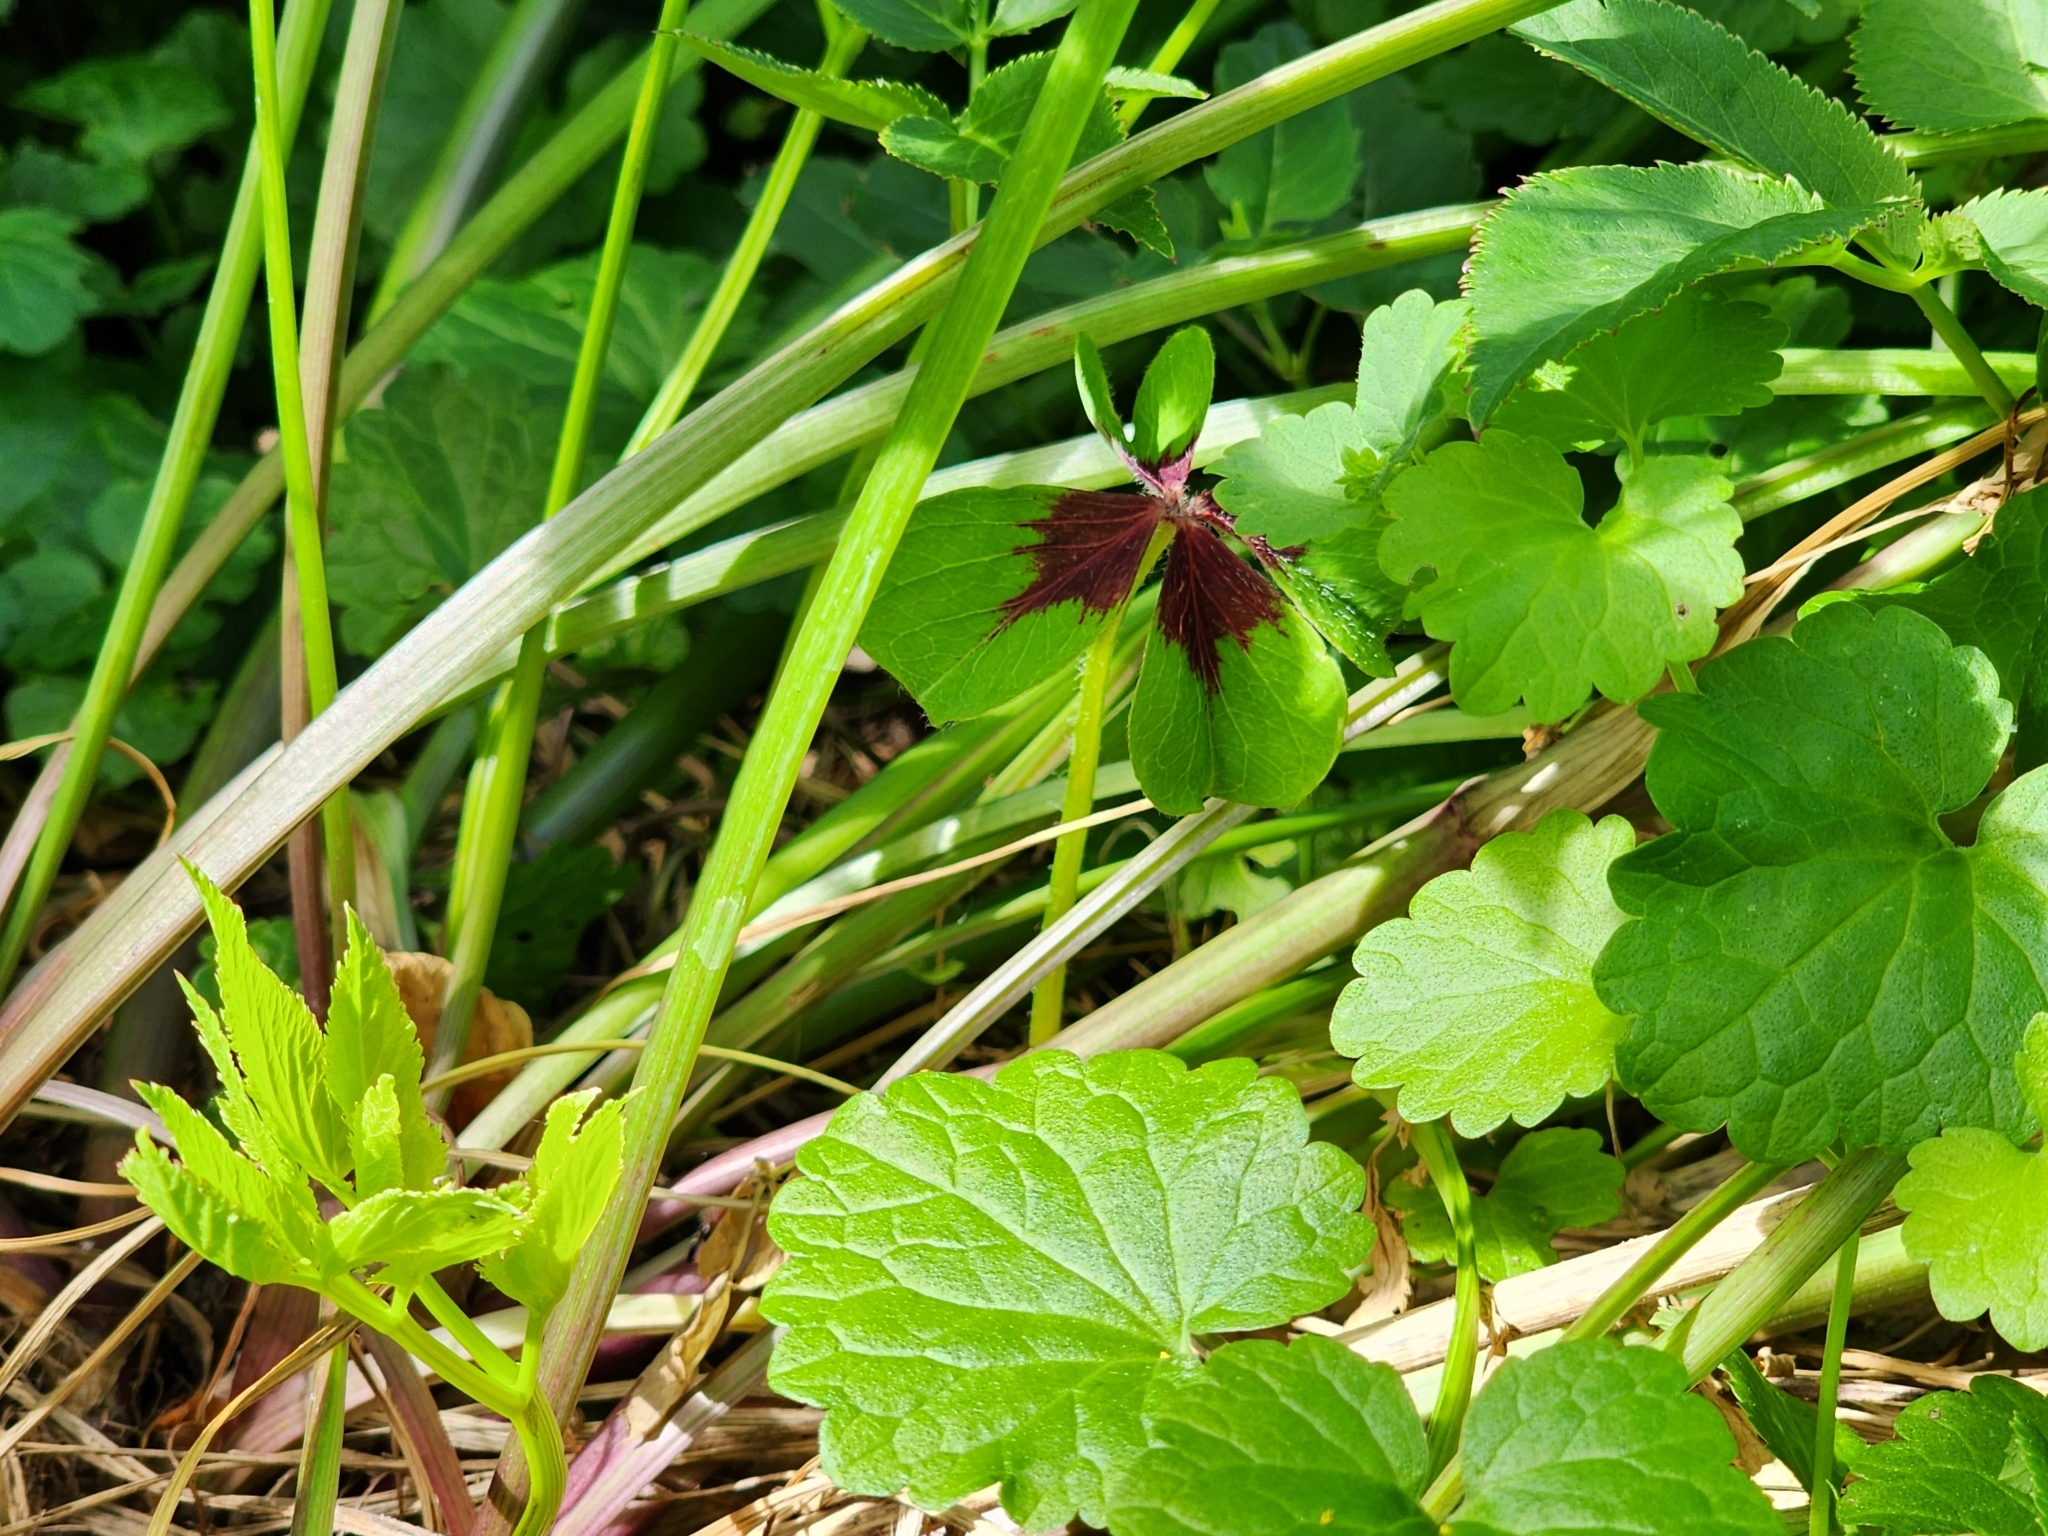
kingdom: Plantae
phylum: Tracheophyta
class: Magnoliopsida
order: Oxalidales
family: Oxalidaceae
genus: Oxalis
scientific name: Oxalis tetraphylla
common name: Four-leaved pink-sorrel
